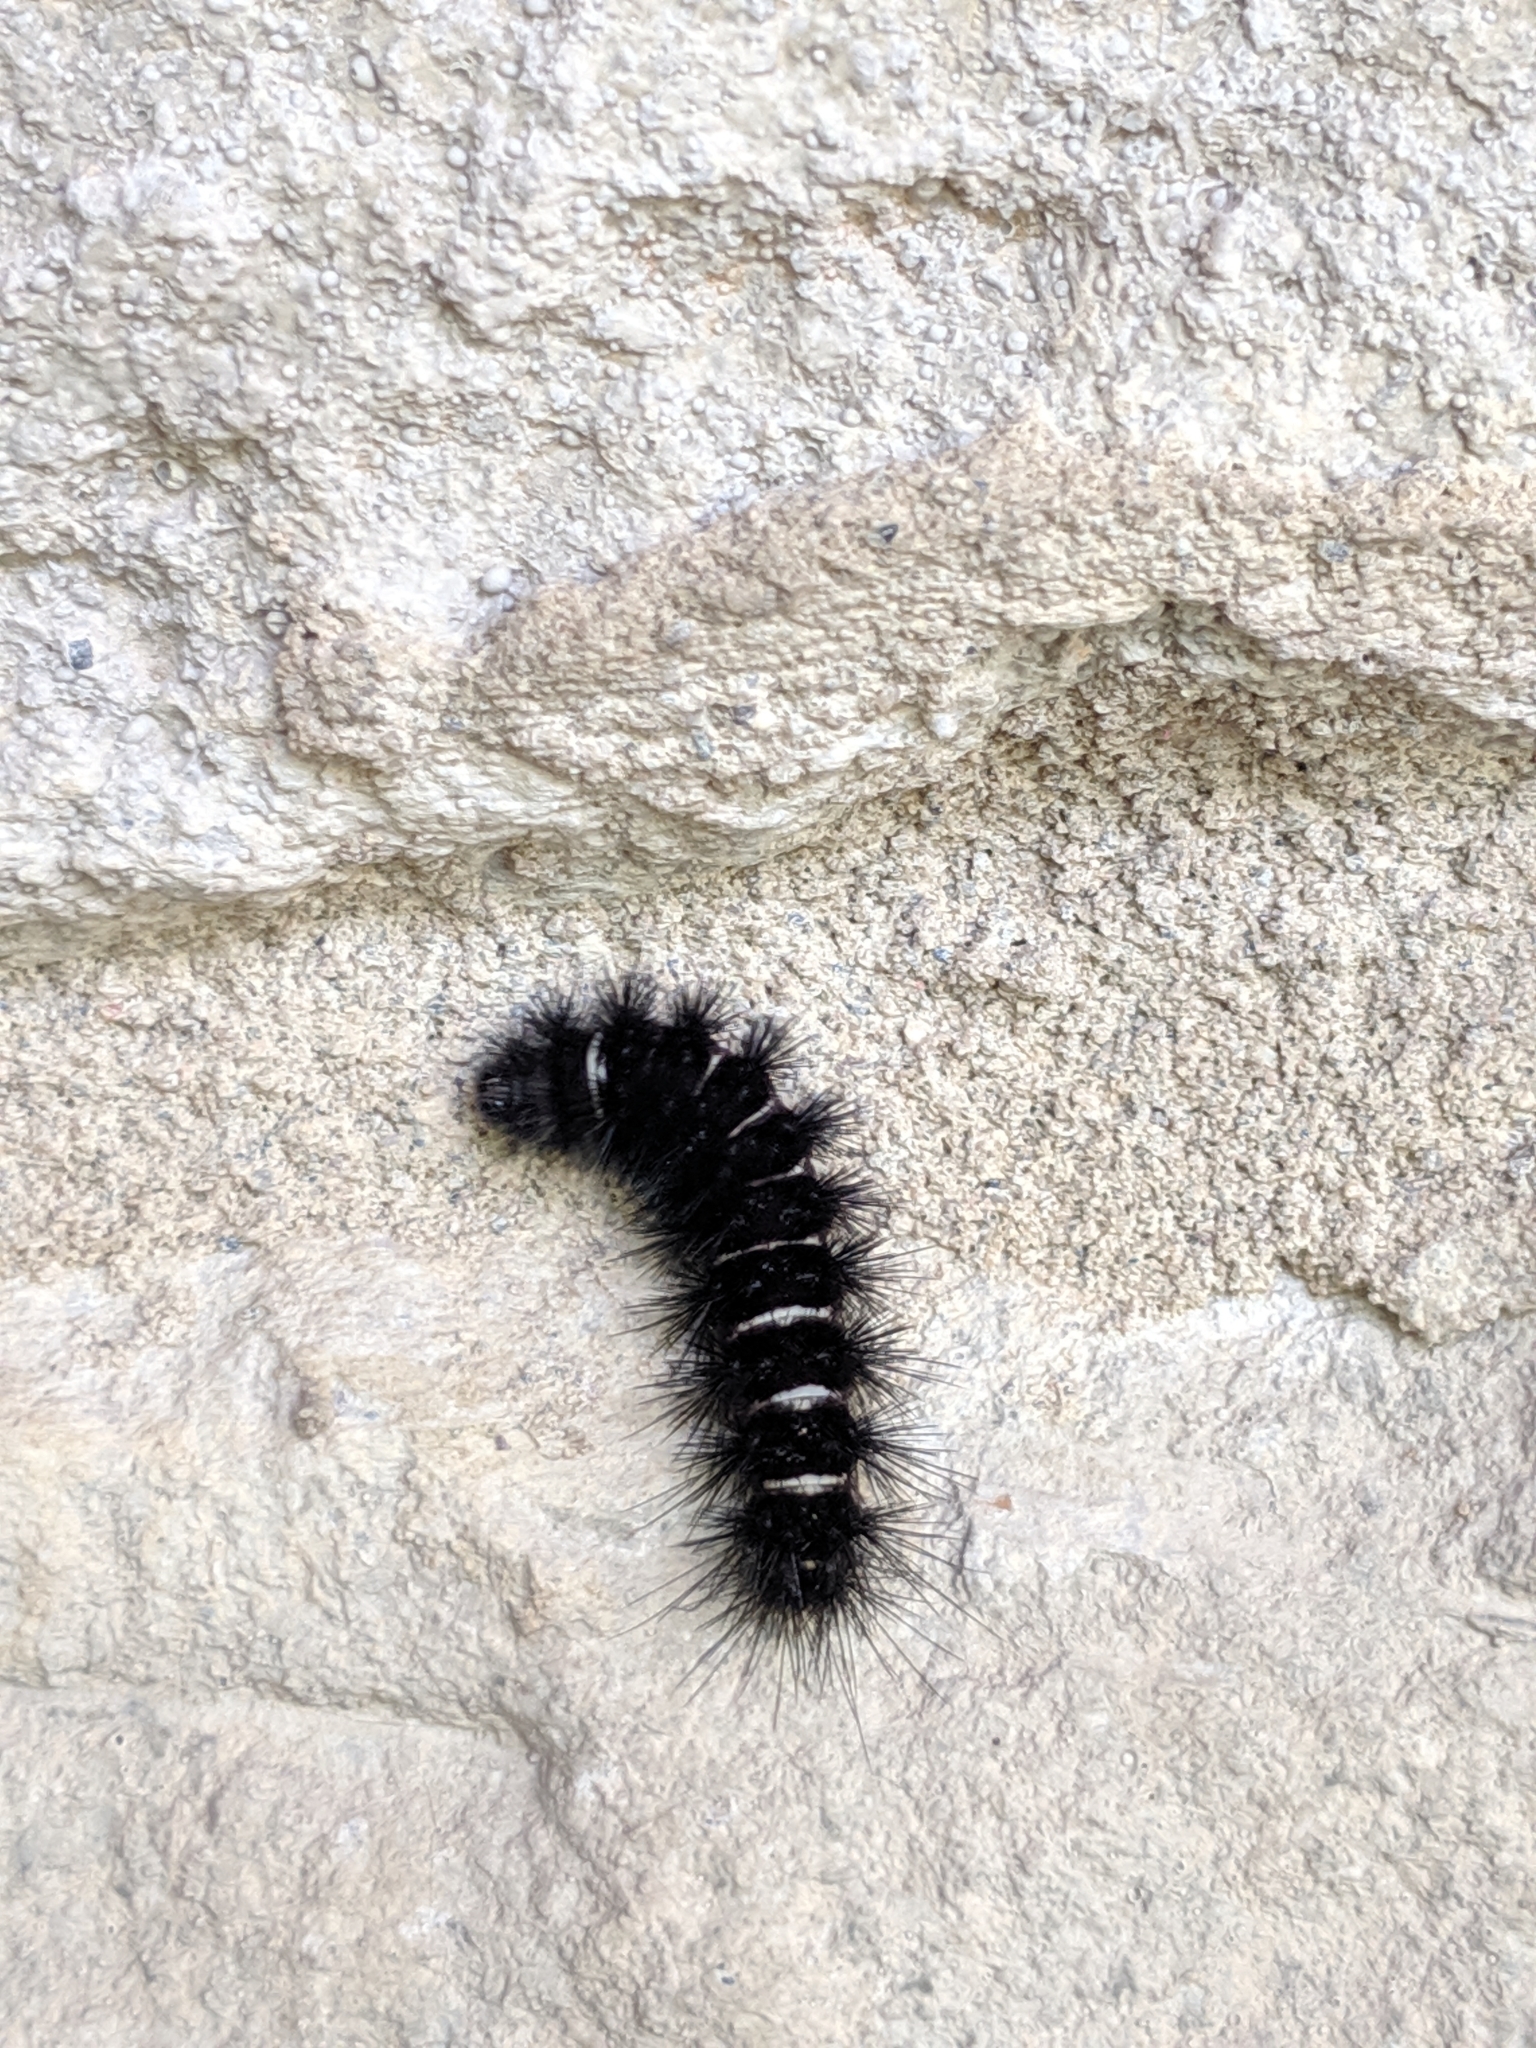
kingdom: Animalia
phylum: Arthropoda
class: Insecta
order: Lepidoptera
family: Erebidae
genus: Spilosoma
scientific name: Spilosoma congrua
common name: Agreeable tiger moth
